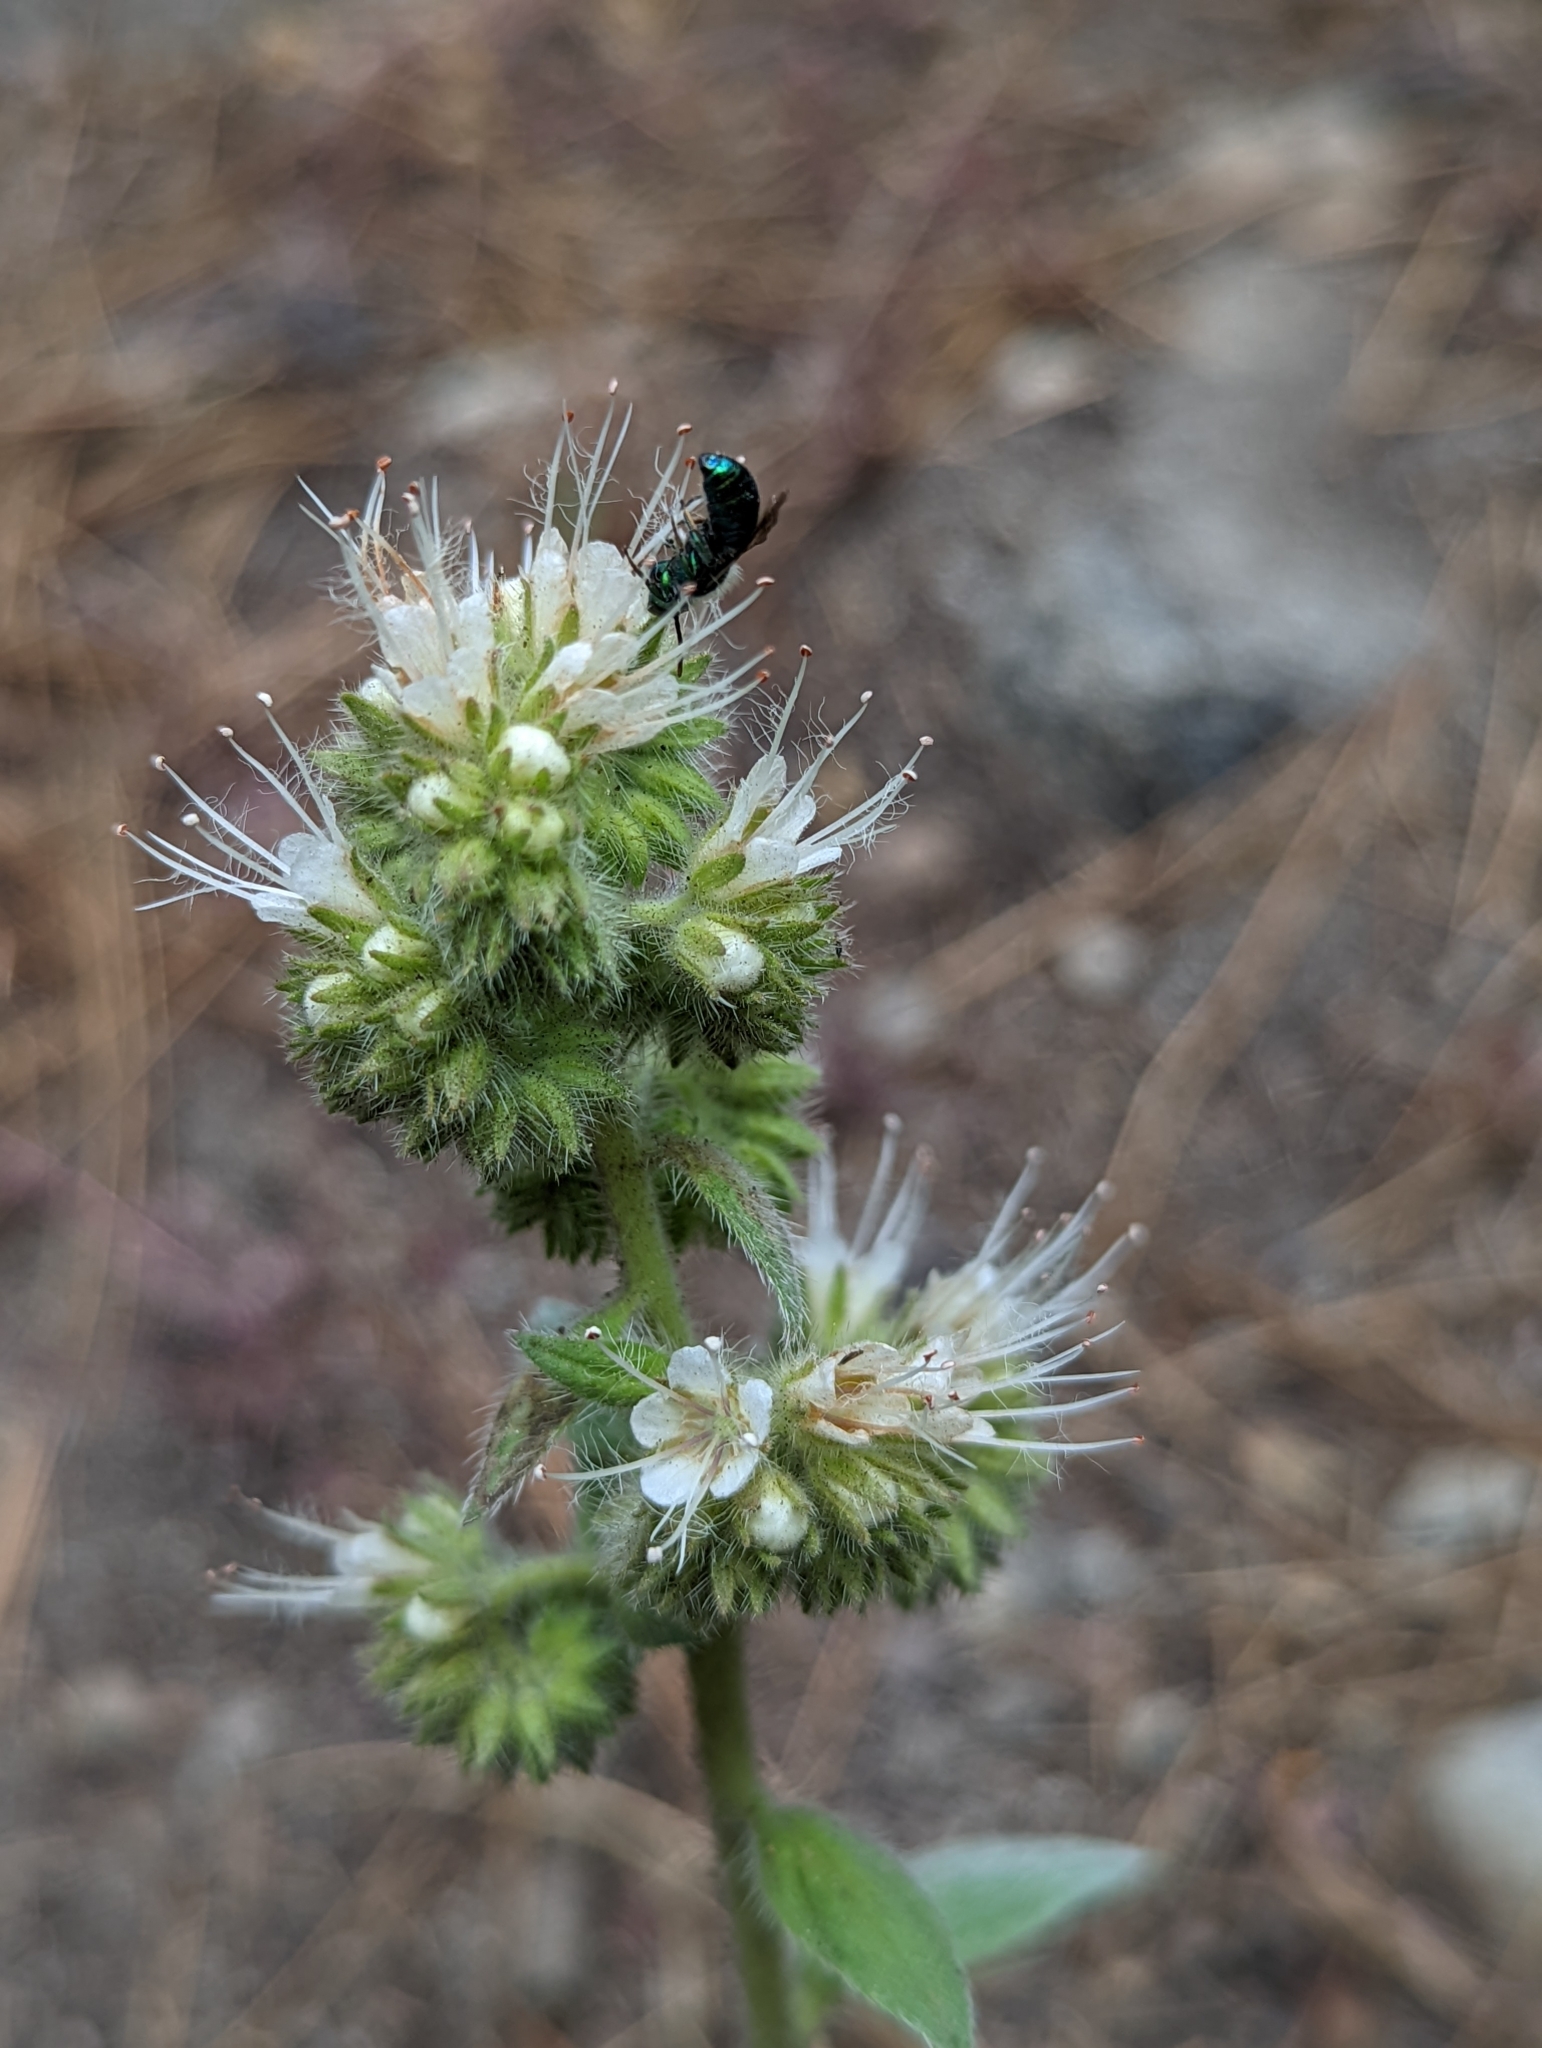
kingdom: Animalia
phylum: Arthropoda
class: Insecta
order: Hymenoptera
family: Megachilidae
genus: Hoplitis
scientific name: Hoplitis fulgida
